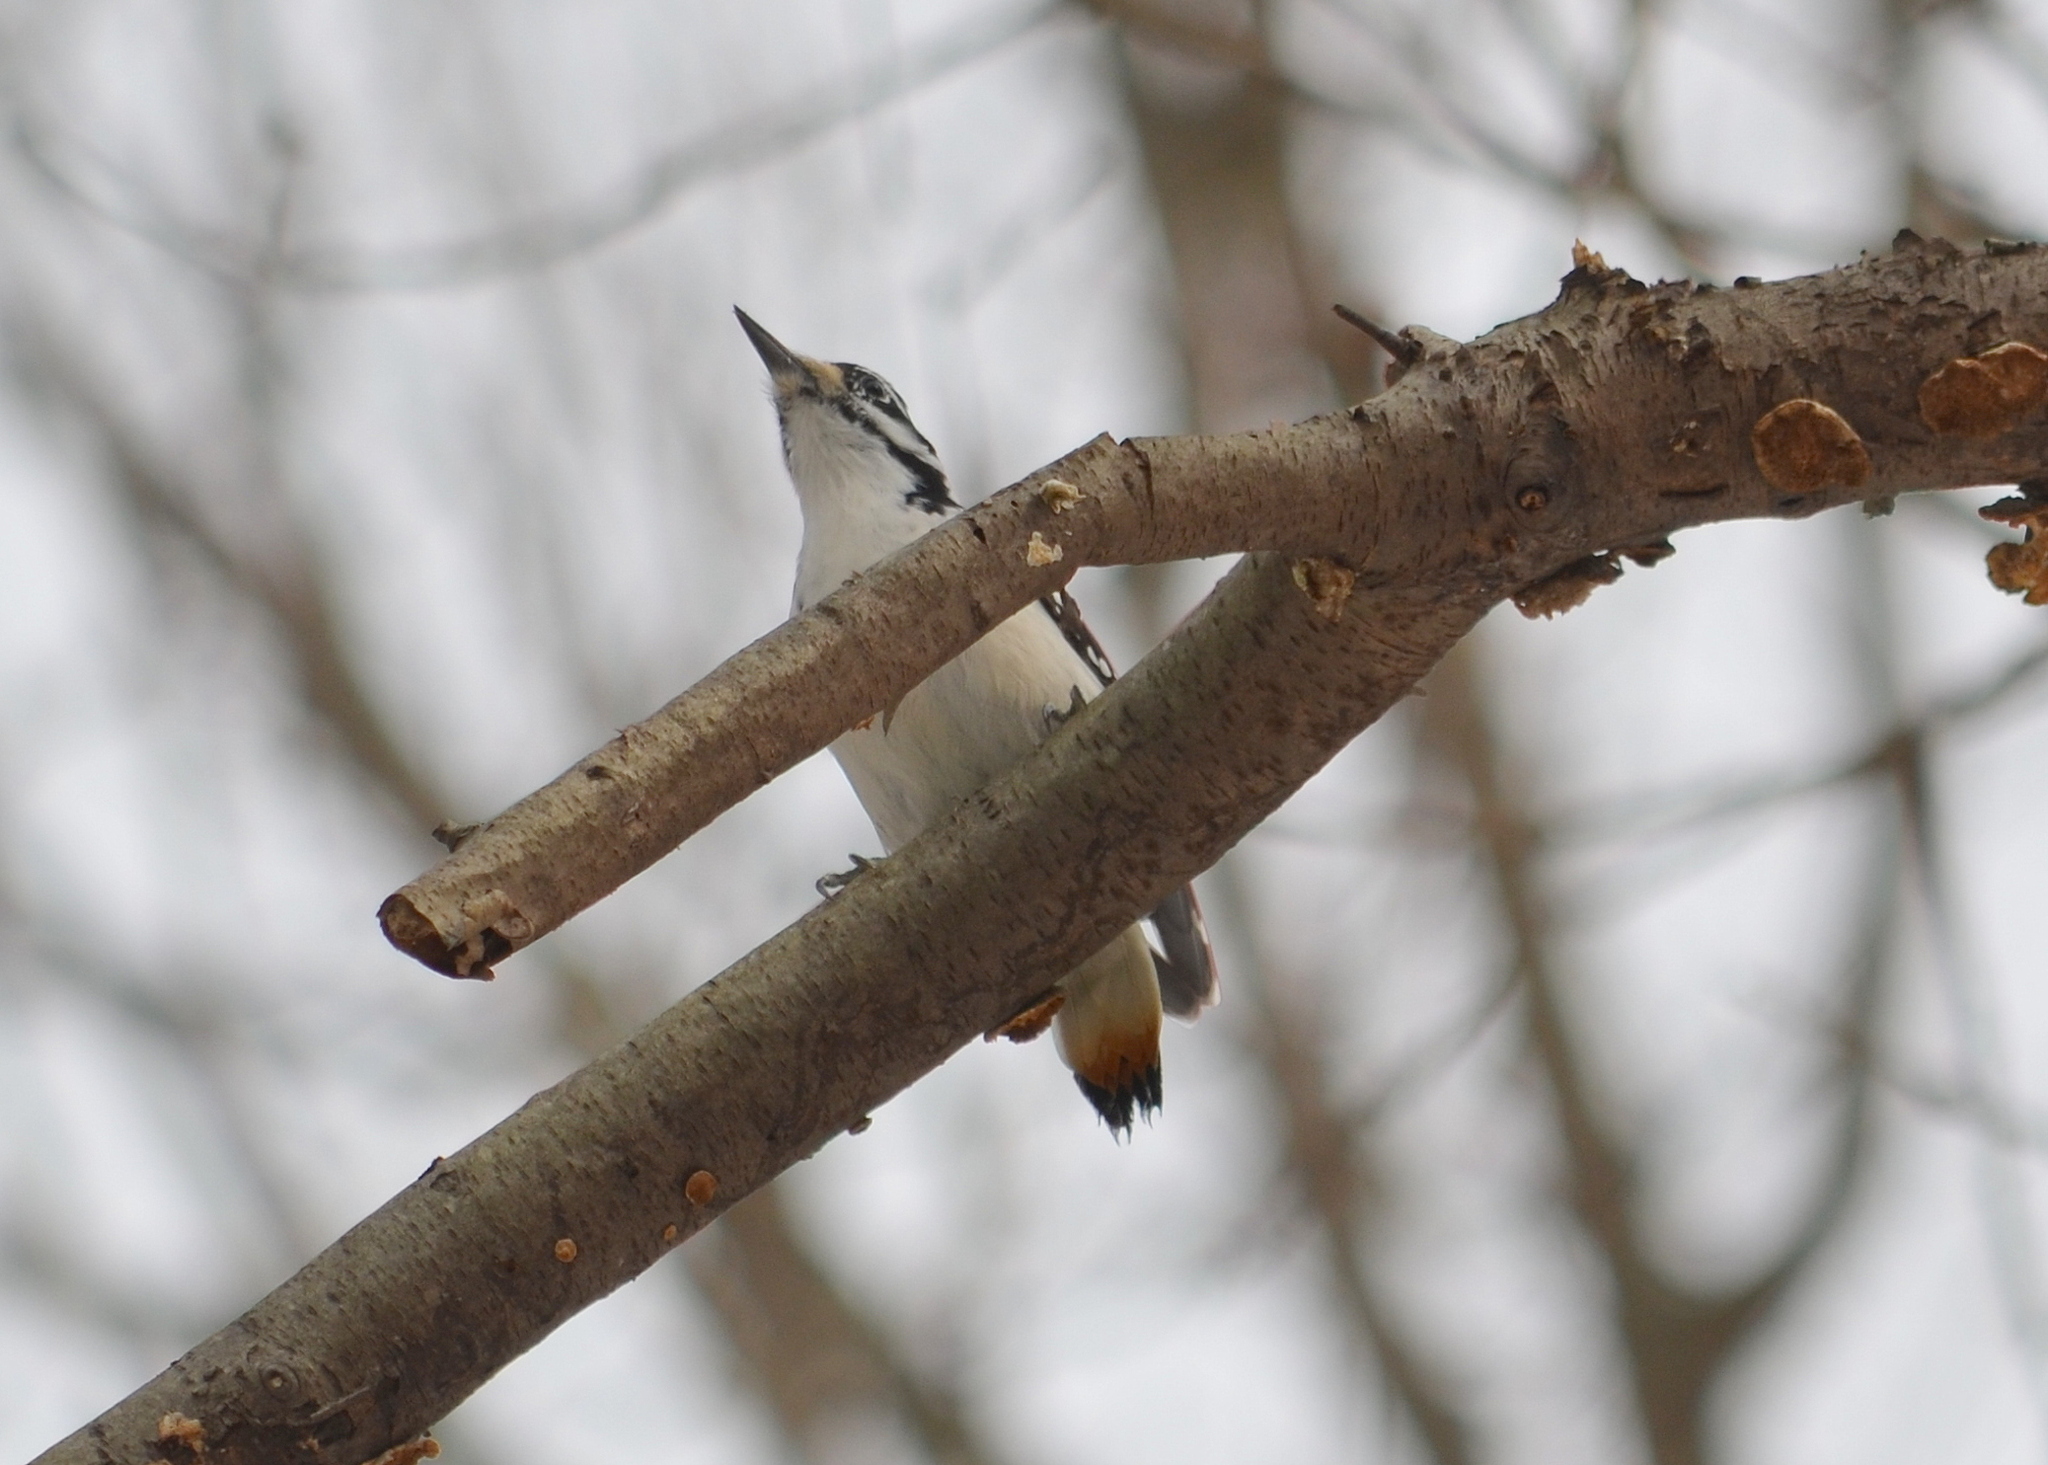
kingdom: Animalia
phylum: Chordata
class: Aves
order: Piciformes
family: Picidae
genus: Leuconotopicus
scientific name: Leuconotopicus villosus
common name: Hairy woodpecker
